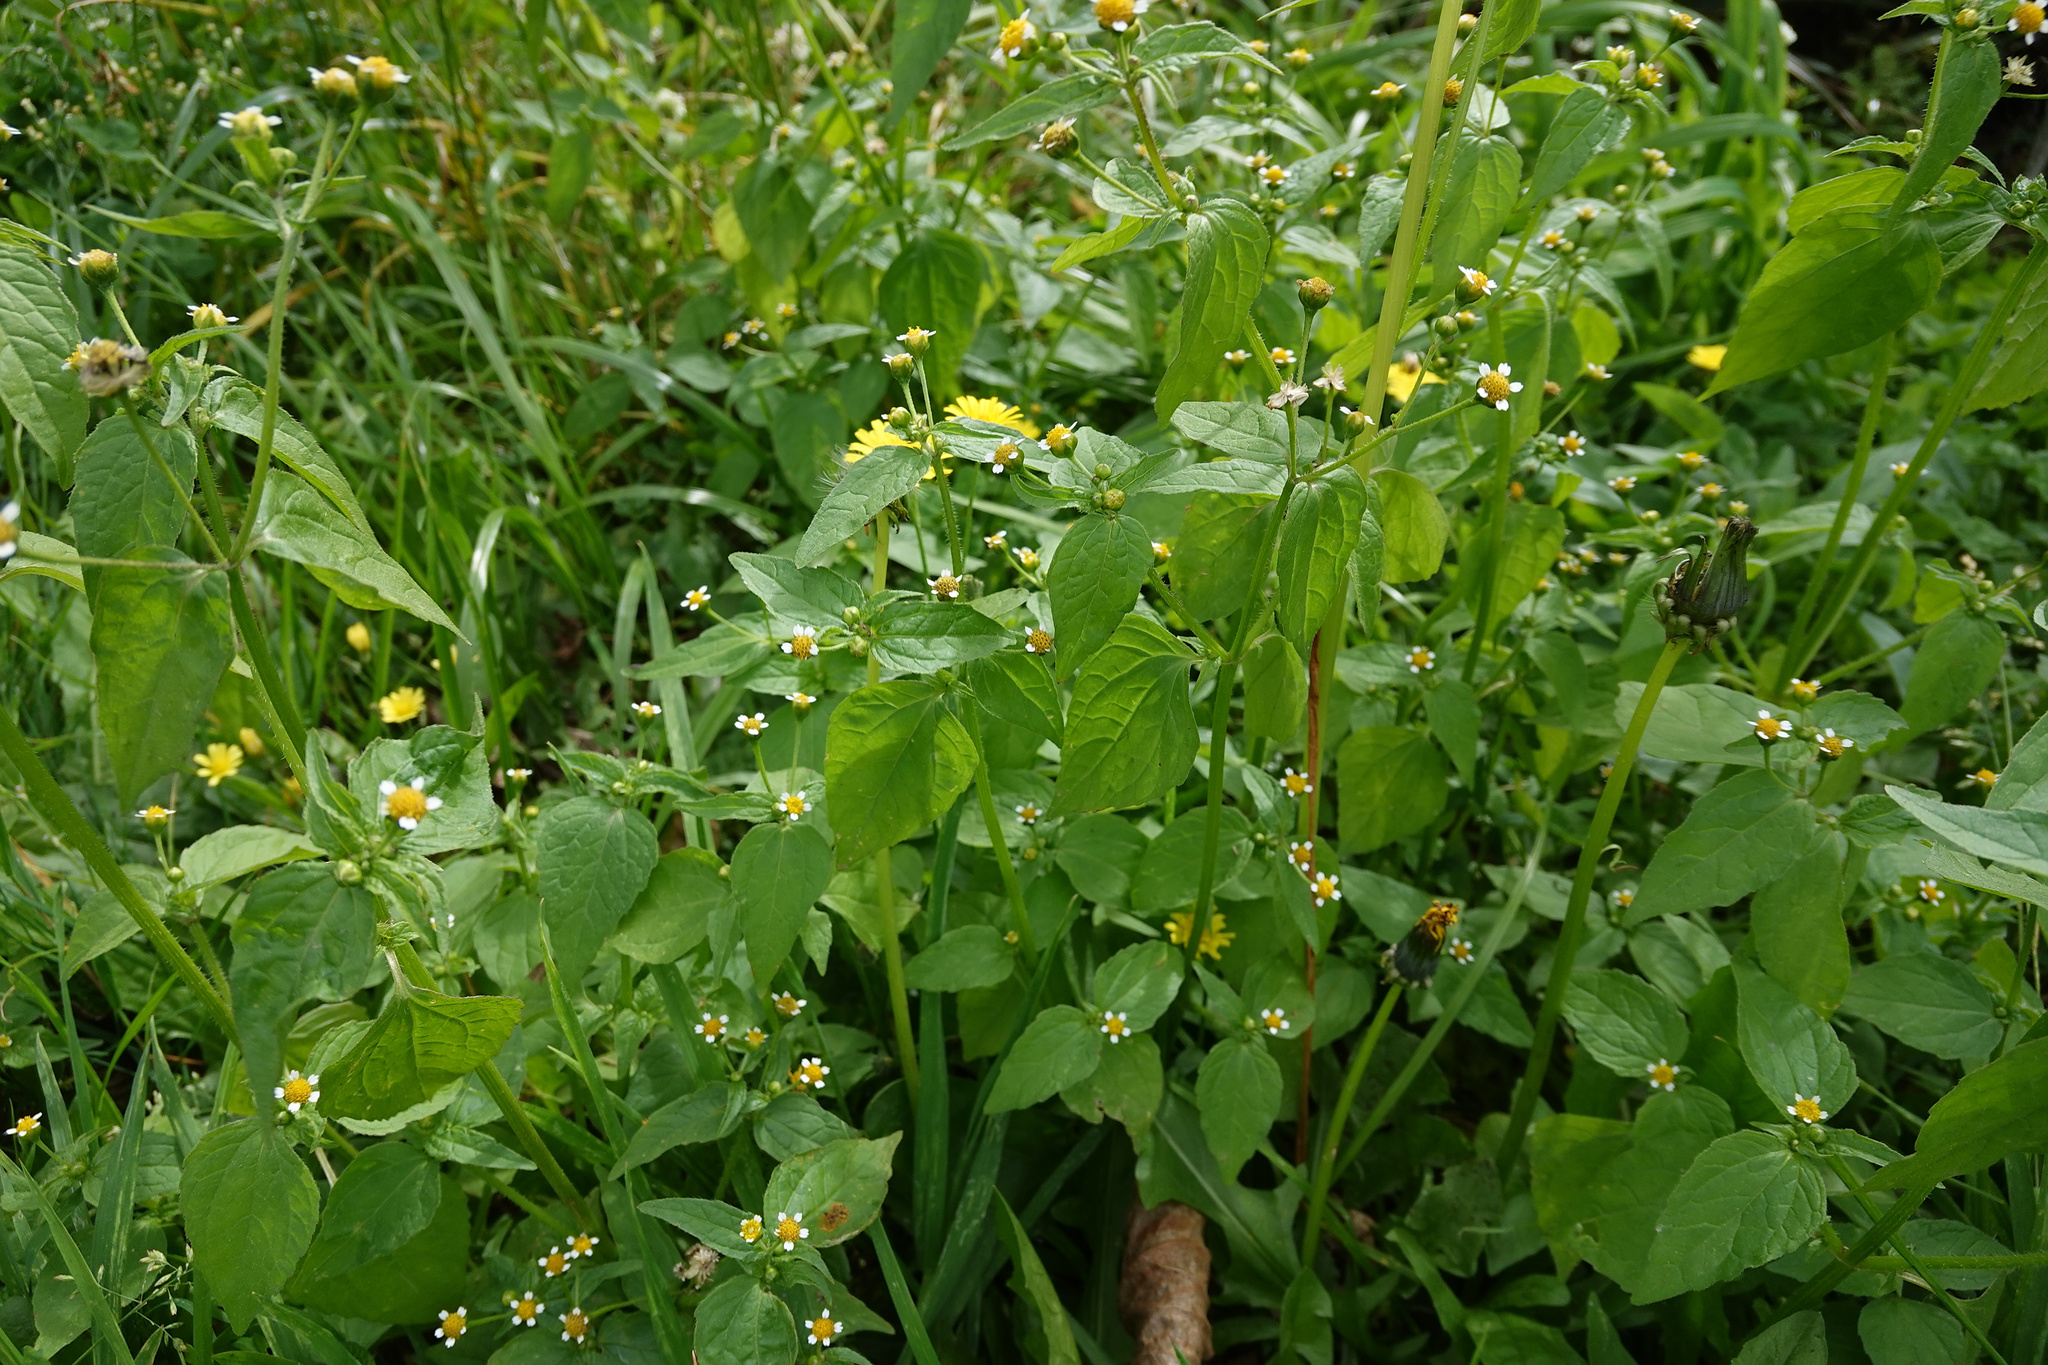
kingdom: Plantae
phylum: Tracheophyta
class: Magnoliopsida
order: Asterales
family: Asteraceae
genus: Galinsoga
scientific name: Galinsoga parviflora
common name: Gallant soldier
